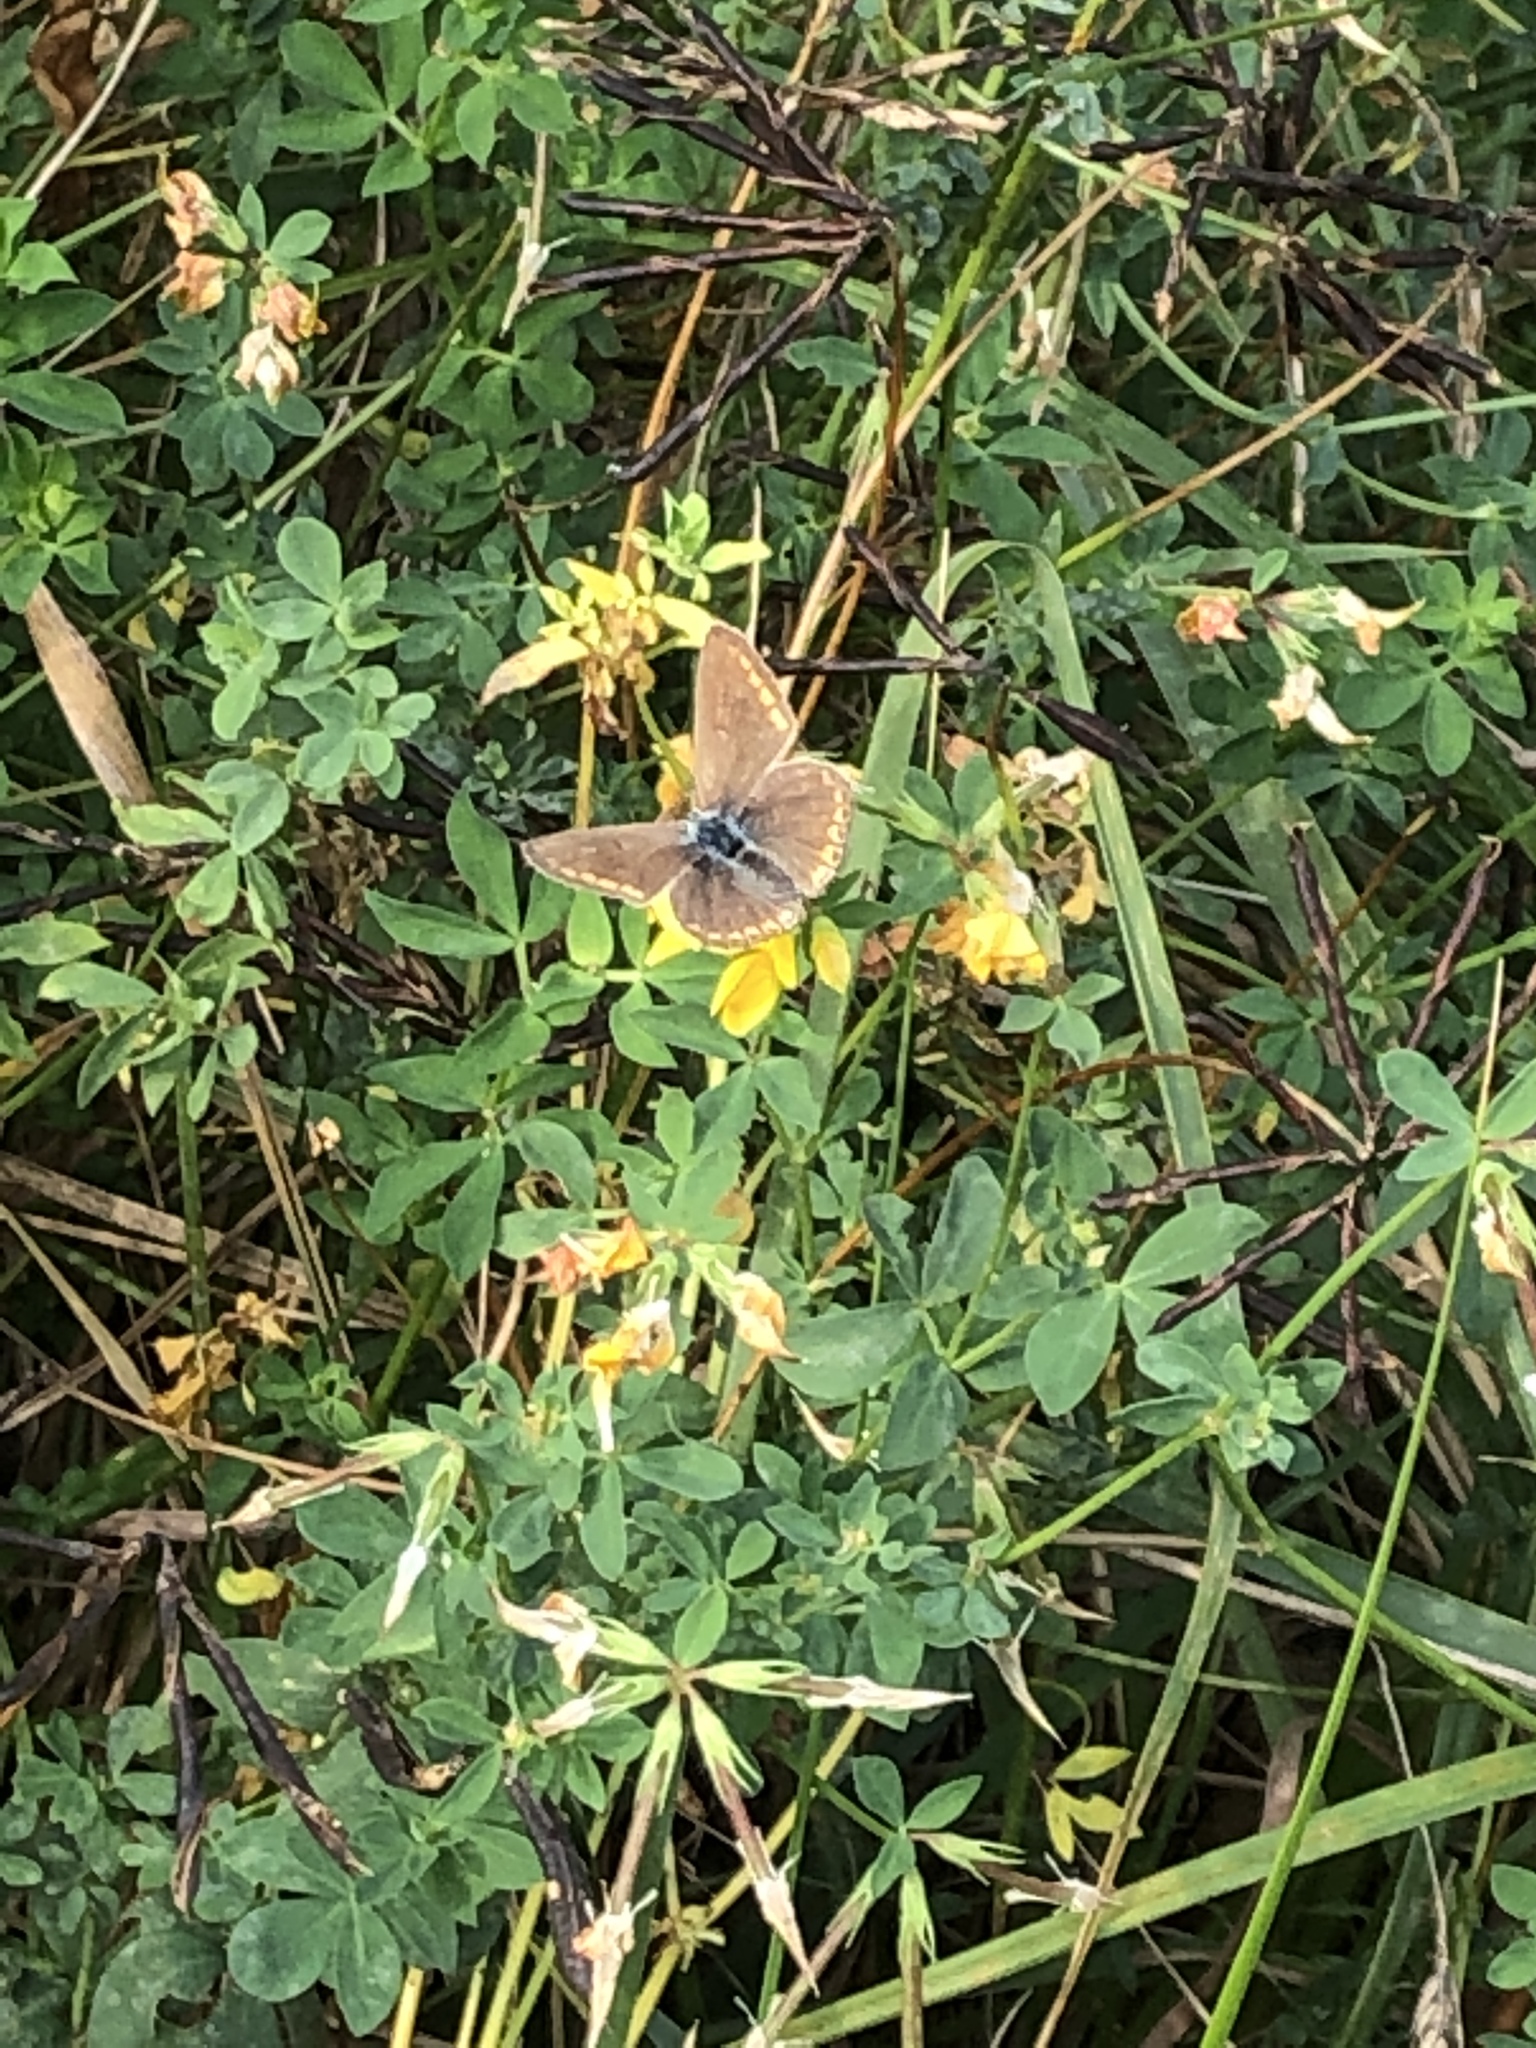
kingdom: Animalia
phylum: Arthropoda
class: Insecta
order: Lepidoptera
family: Lycaenidae
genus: Polyommatus
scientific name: Polyommatus icarus
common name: Common blue
